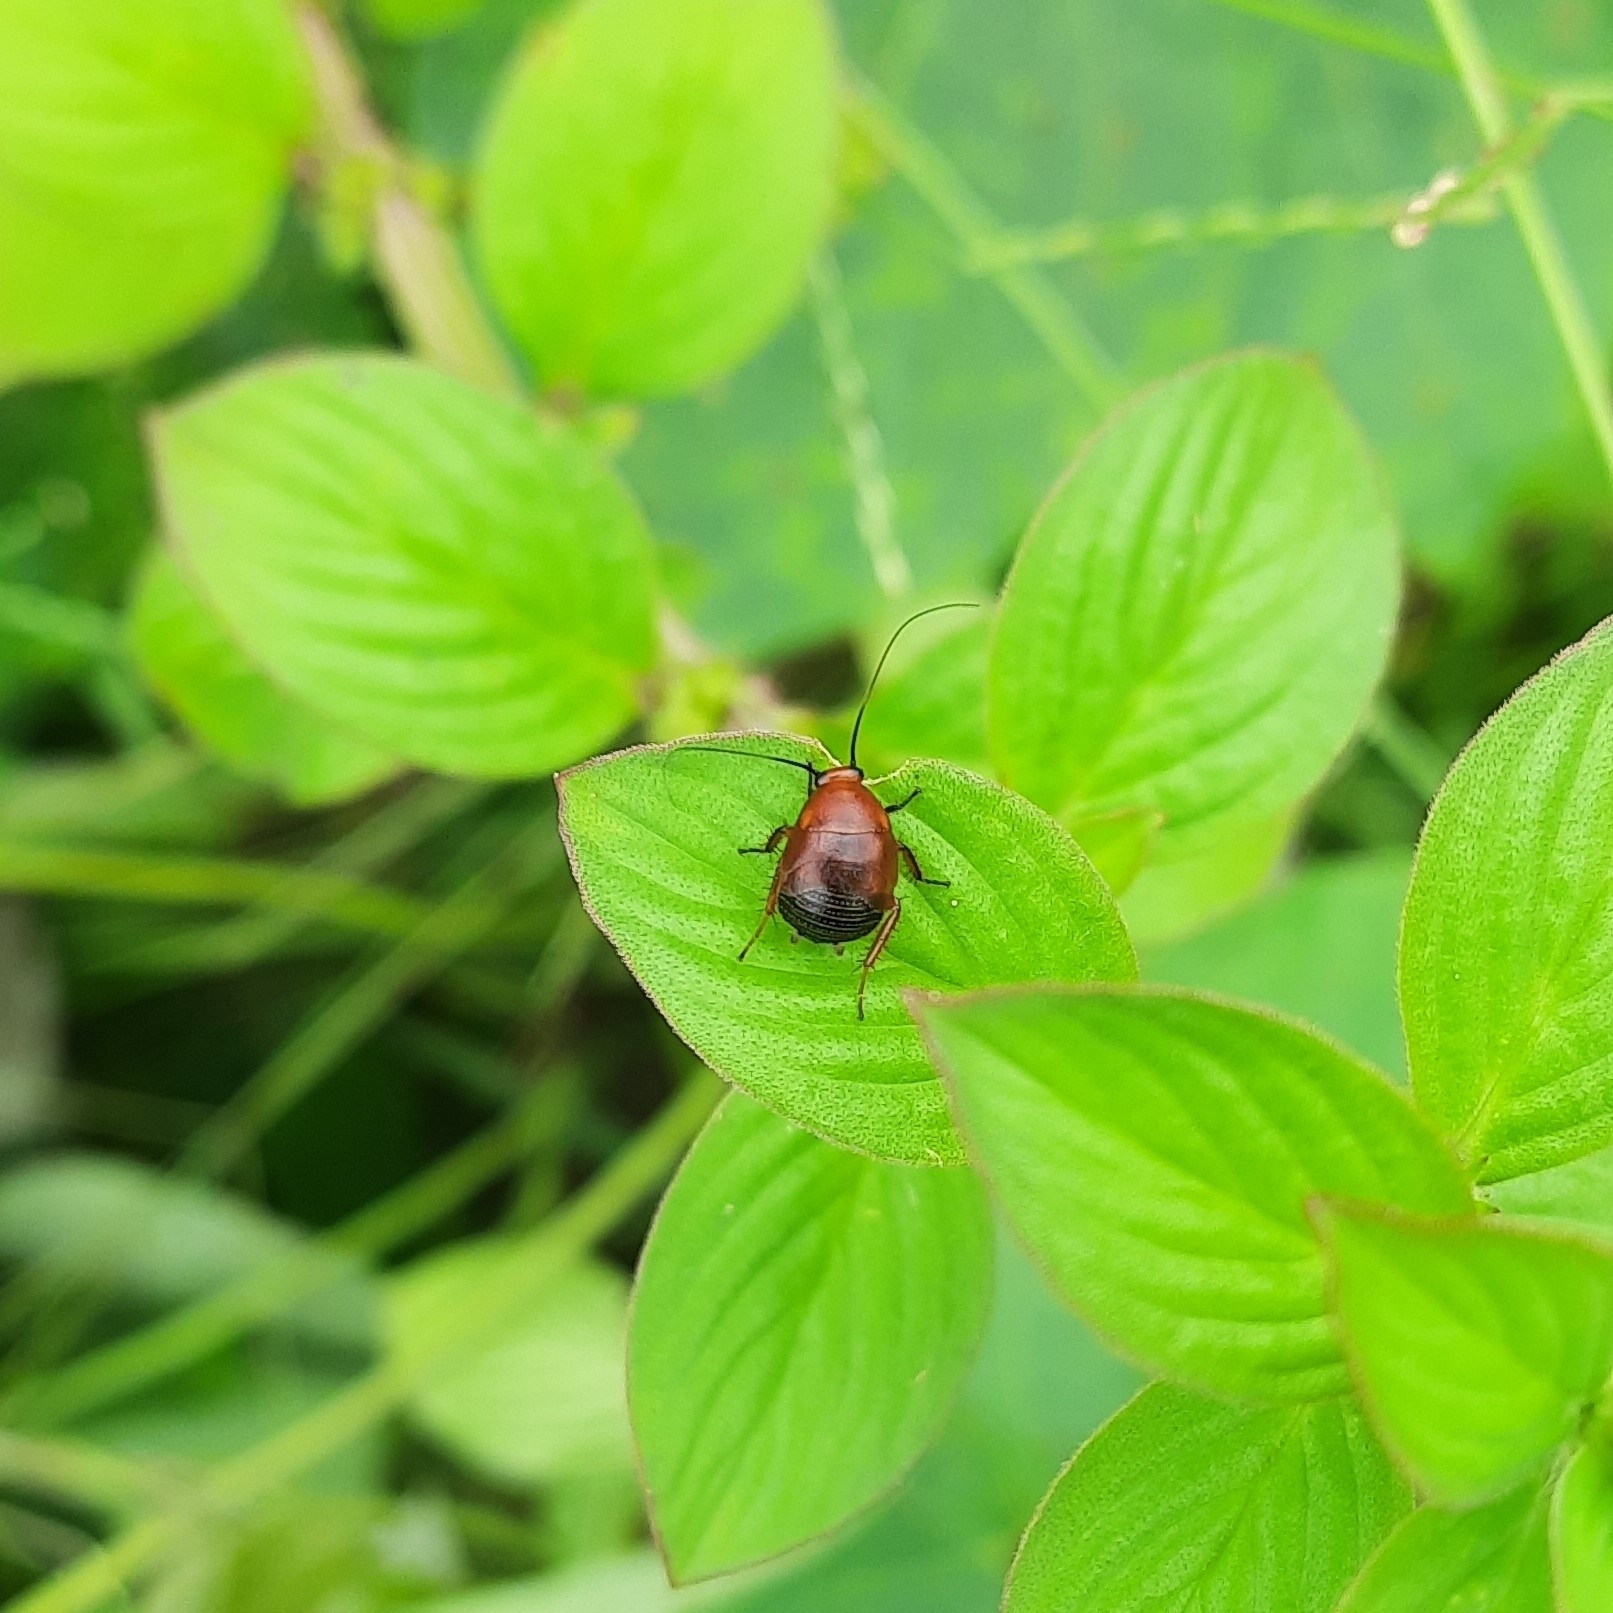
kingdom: Animalia
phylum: Arthropoda
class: Insecta
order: Blattodea
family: Ectobiidae
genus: Hemithyrsocera
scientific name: Hemithyrsocera palliata
